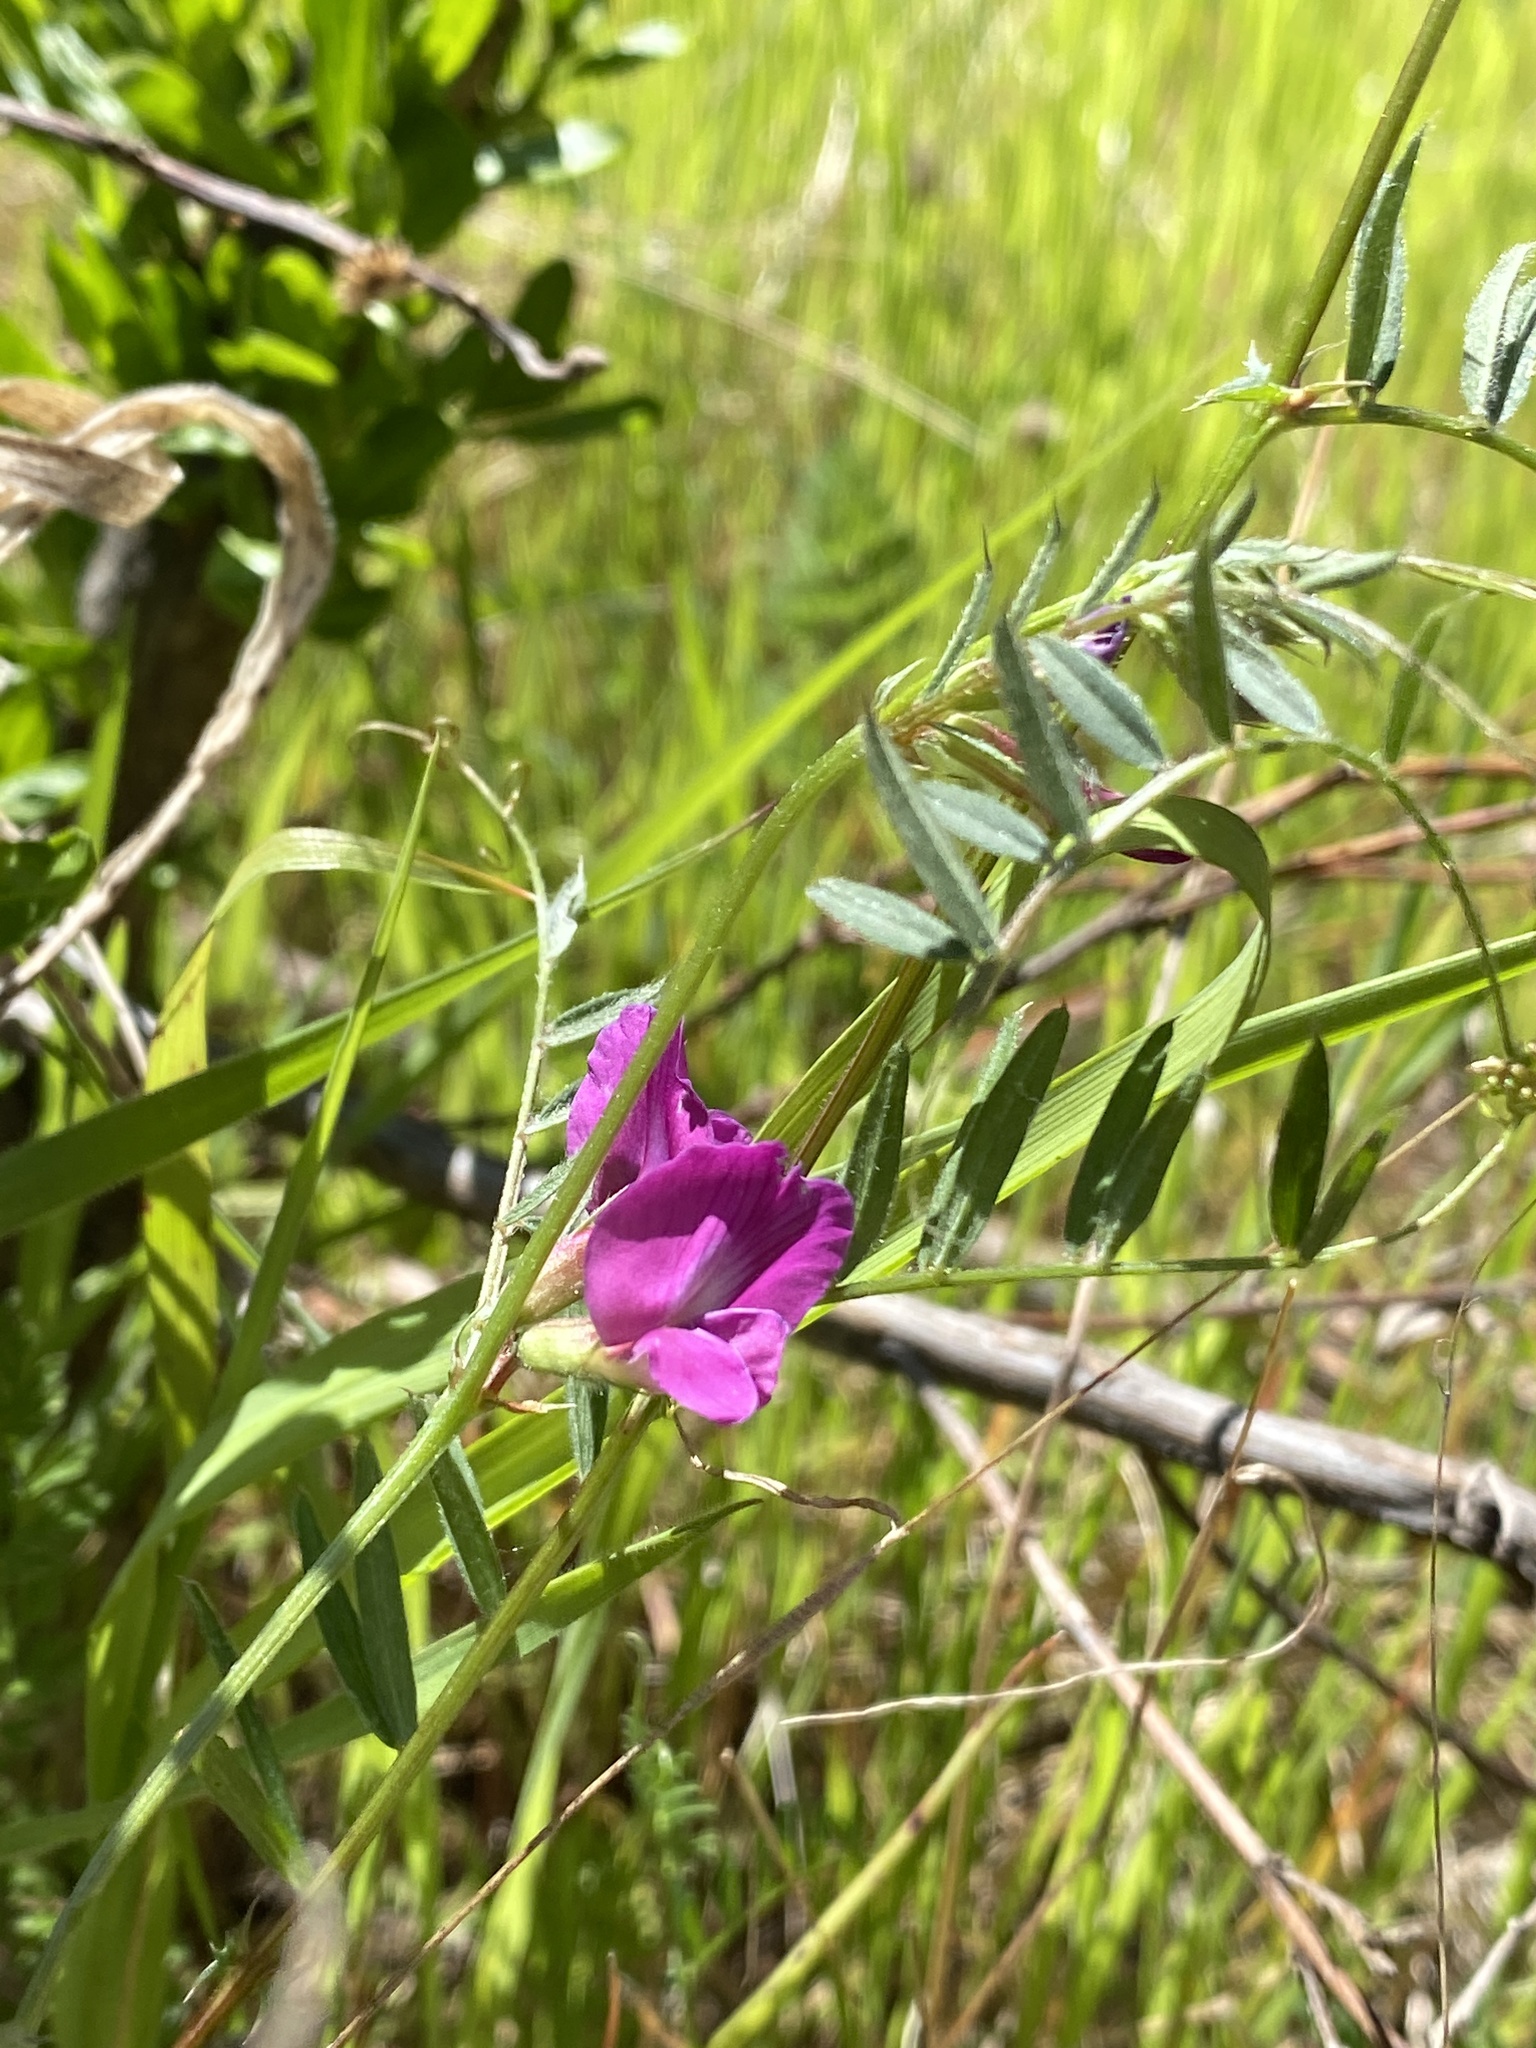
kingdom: Plantae
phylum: Tracheophyta
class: Magnoliopsida
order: Fabales
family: Fabaceae
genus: Vicia
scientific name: Vicia sativa
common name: Garden vetch
